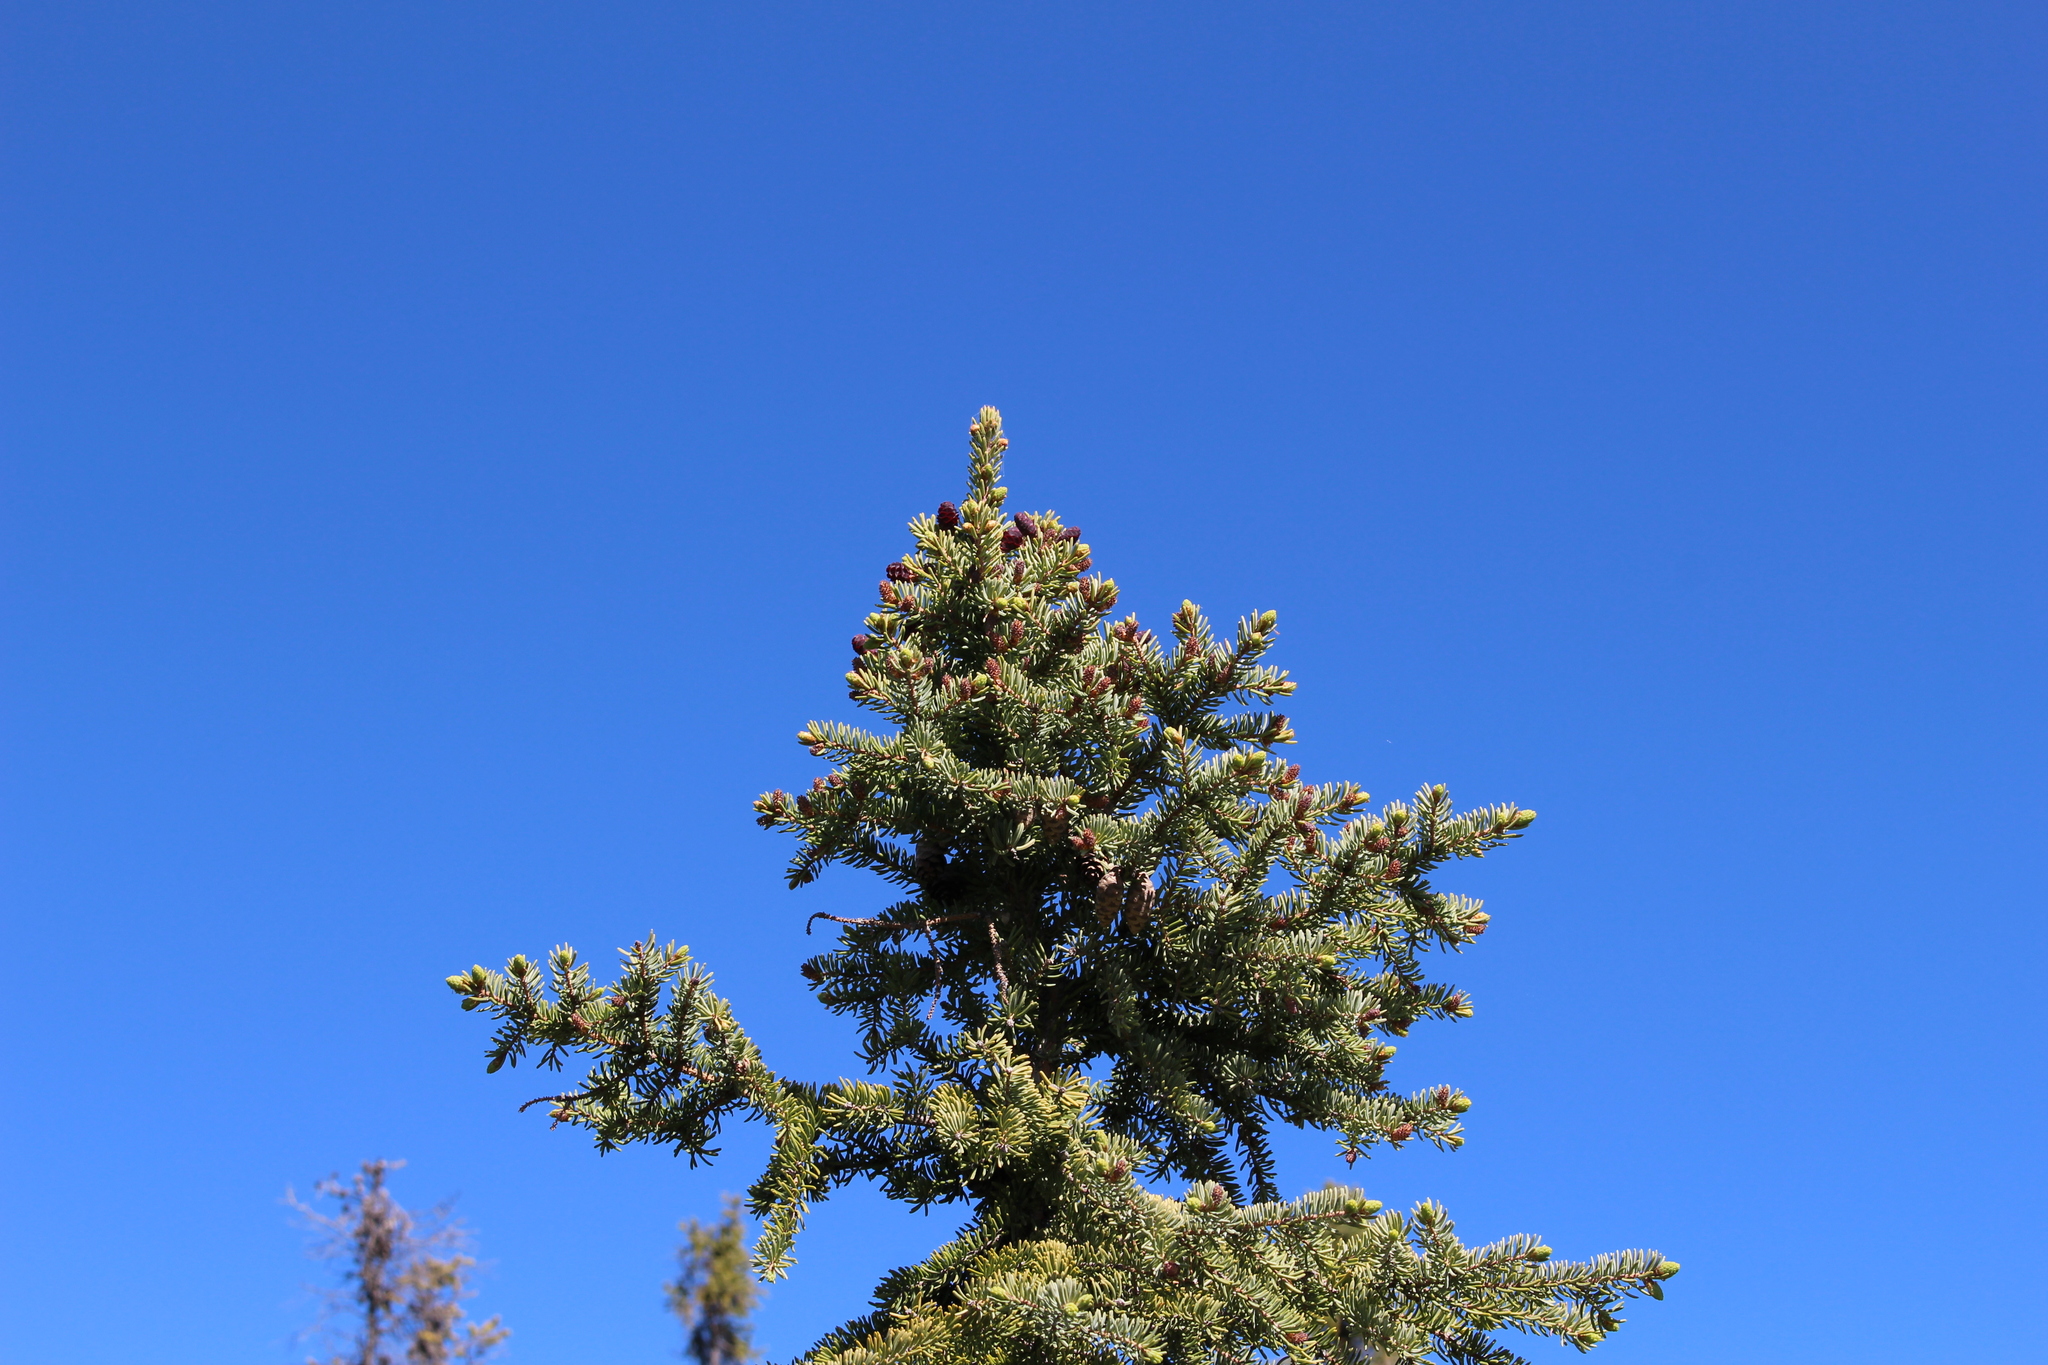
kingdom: Plantae
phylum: Tracheophyta
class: Pinopsida
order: Pinales
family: Pinaceae
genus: Picea
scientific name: Picea mariana
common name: Black spruce
